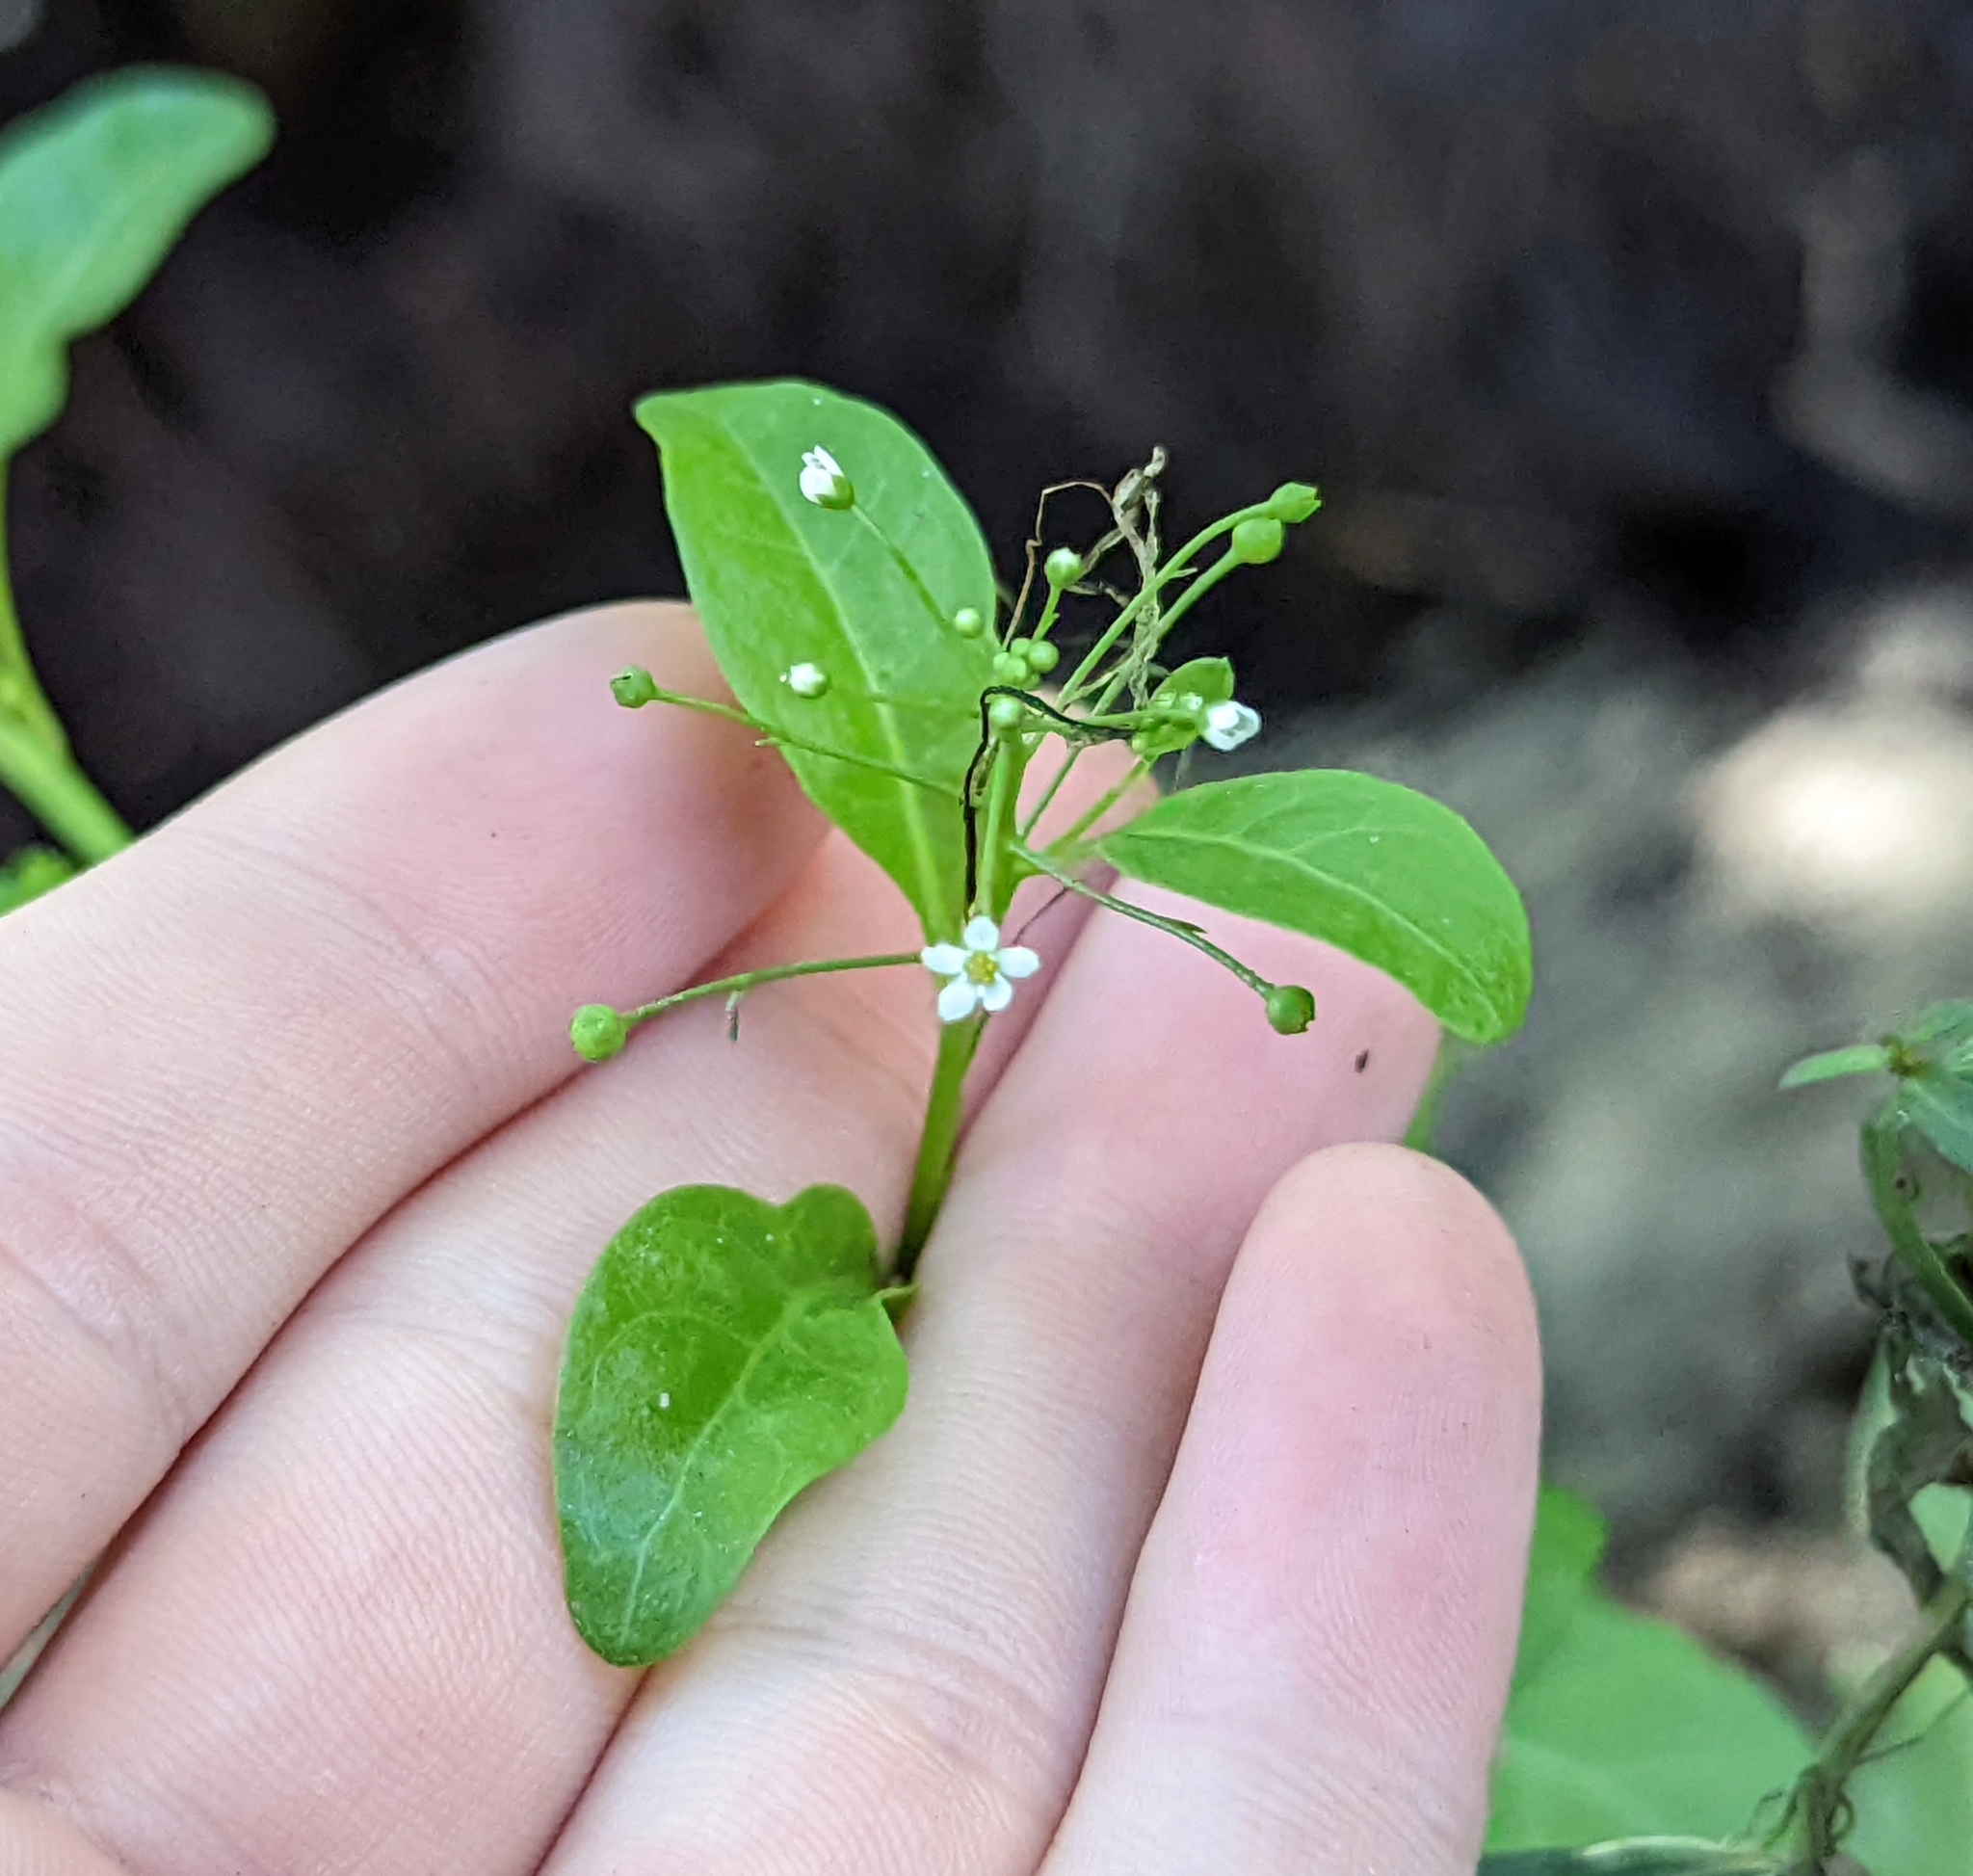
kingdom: Plantae
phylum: Tracheophyta
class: Magnoliopsida
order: Ericales
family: Primulaceae
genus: Samolus
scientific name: Samolus parviflorus
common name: False water pimpernel
